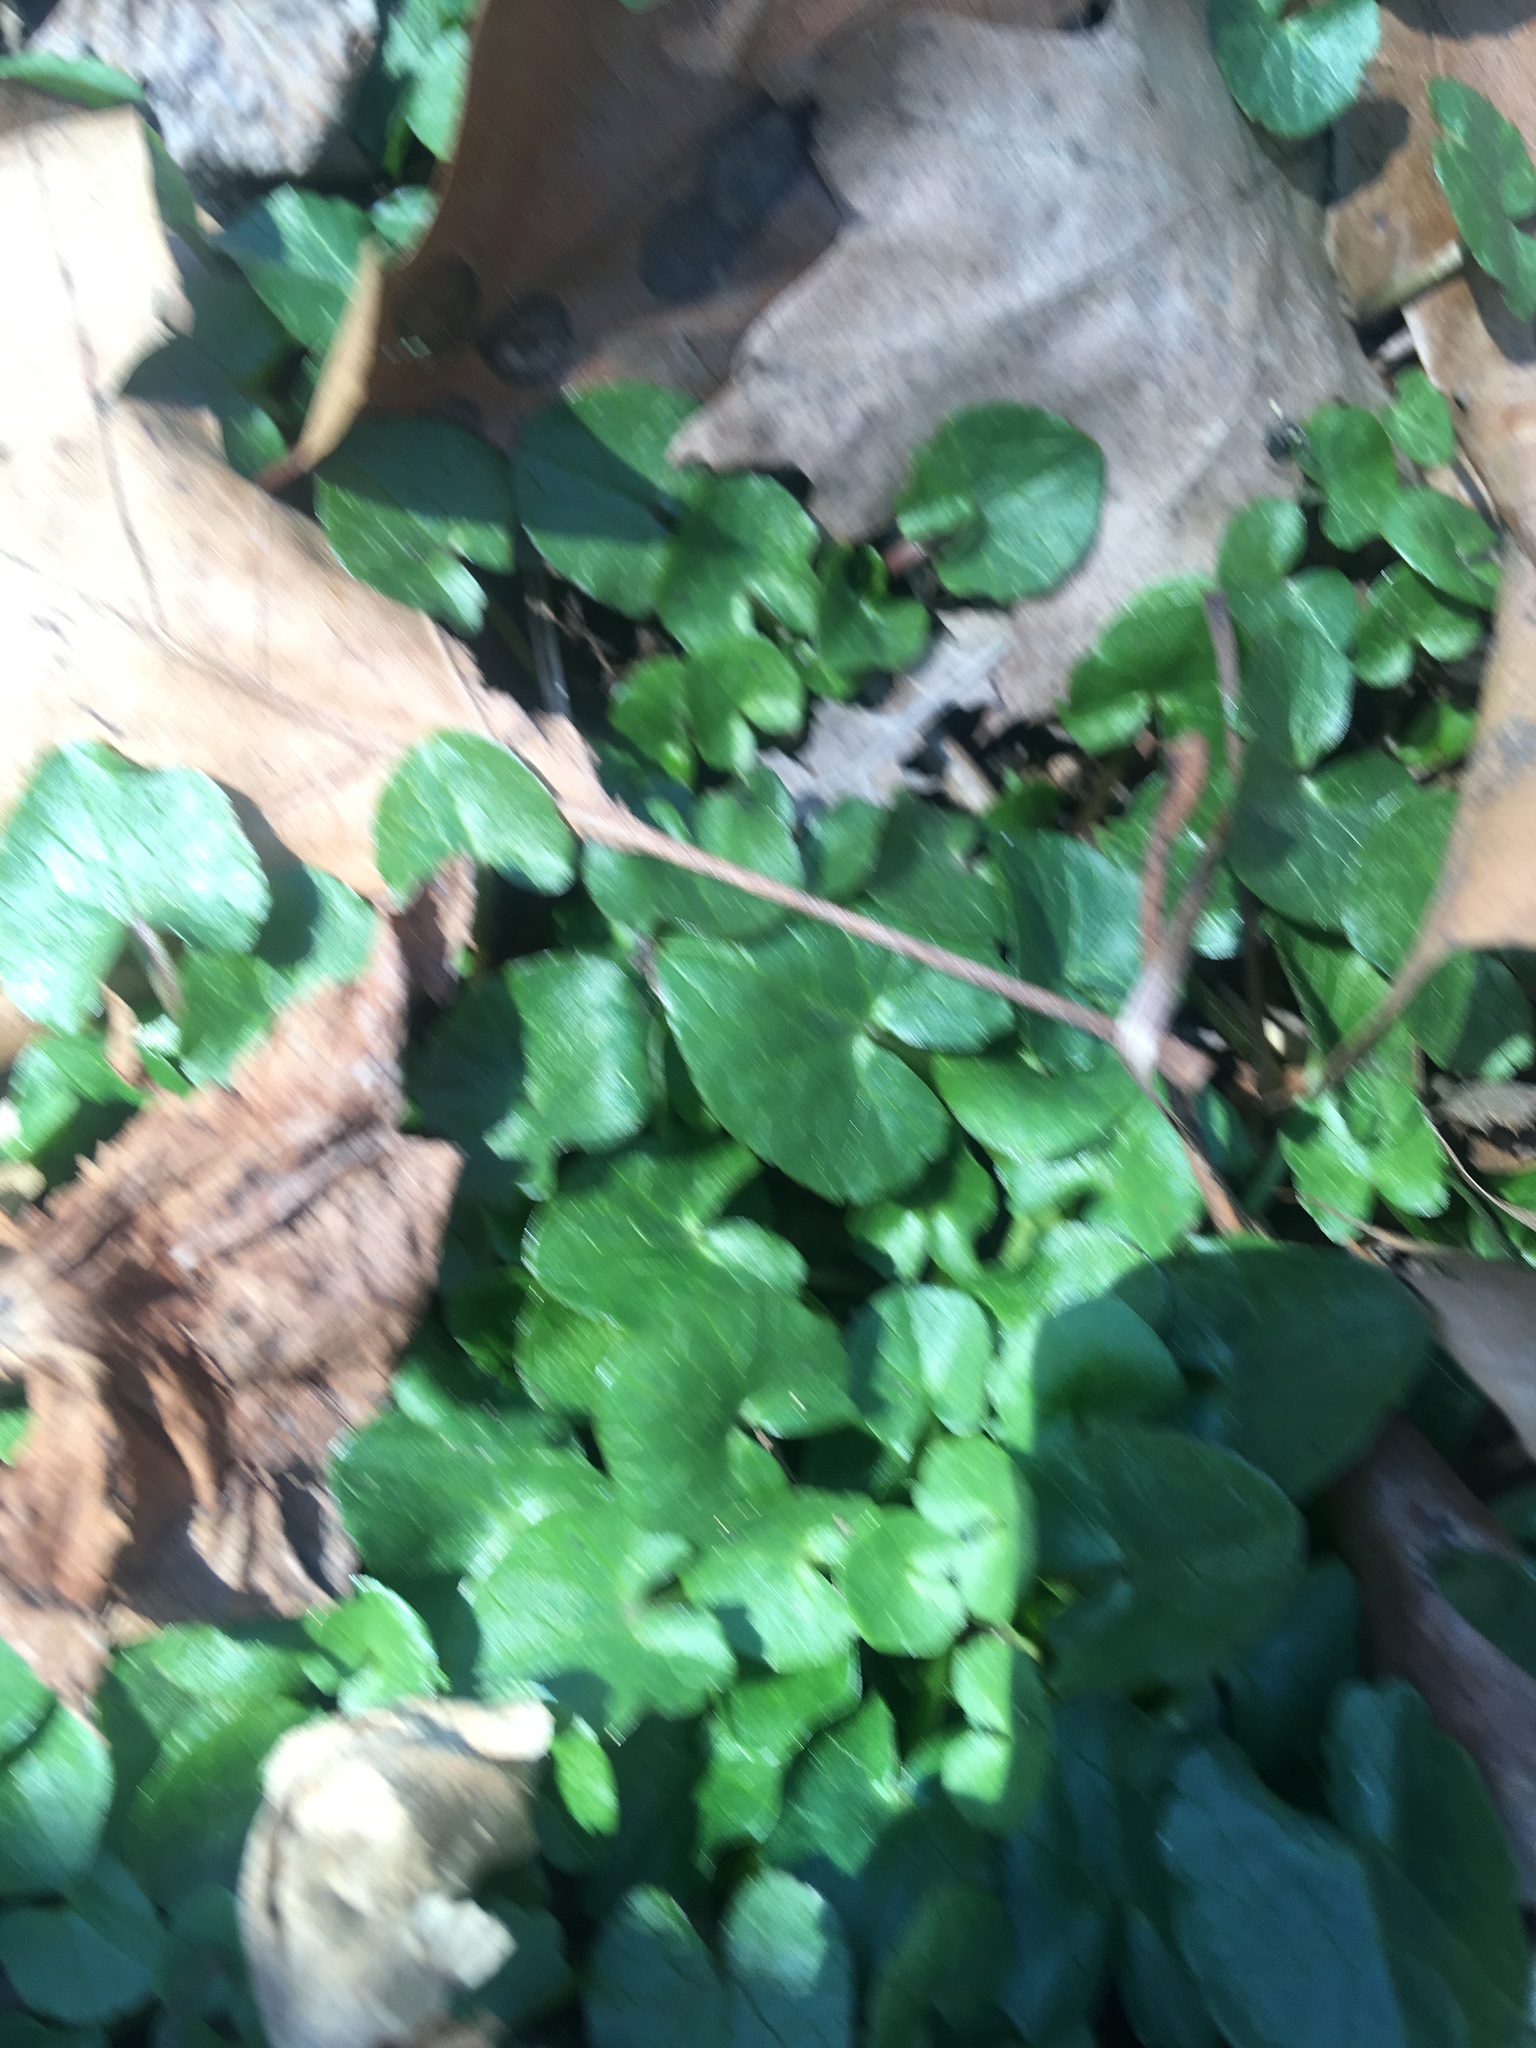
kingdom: Plantae
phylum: Tracheophyta
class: Magnoliopsida
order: Ranunculales
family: Ranunculaceae
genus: Ficaria
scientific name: Ficaria verna
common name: Lesser celandine
